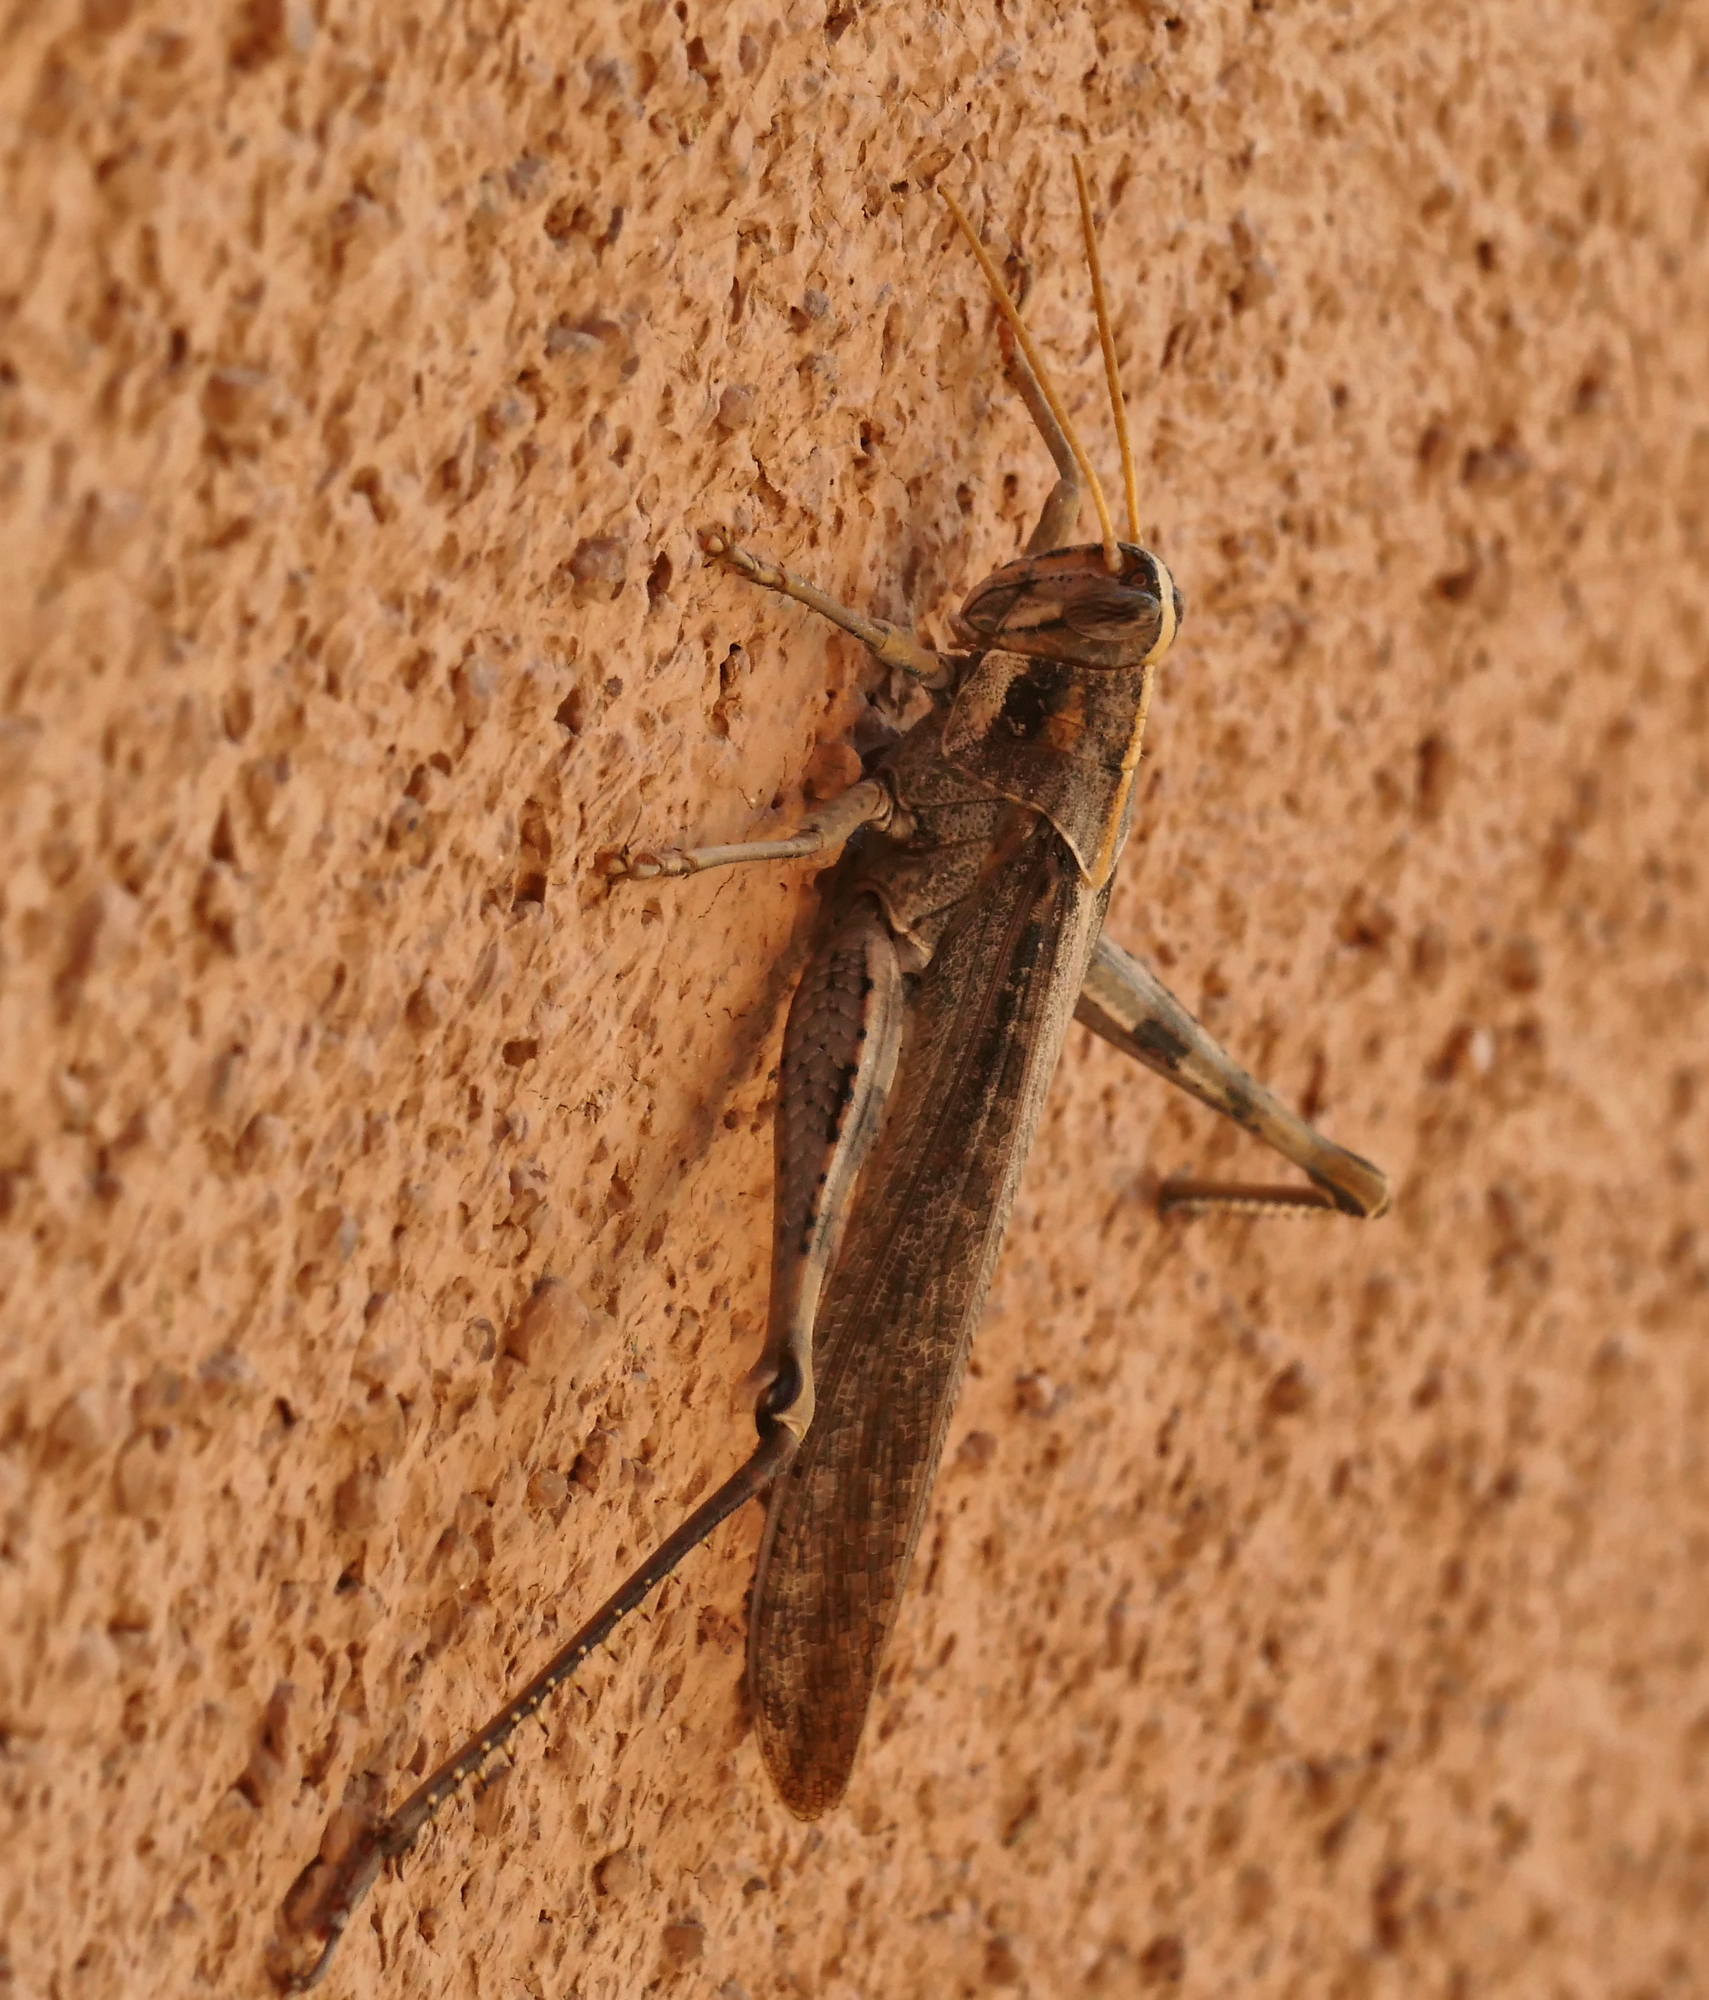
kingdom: Animalia
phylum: Arthropoda
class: Insecta
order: Orthoptera
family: Acrididae
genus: Schistocerca
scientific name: Schistocerca nitens
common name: Vagrant grasshopper
